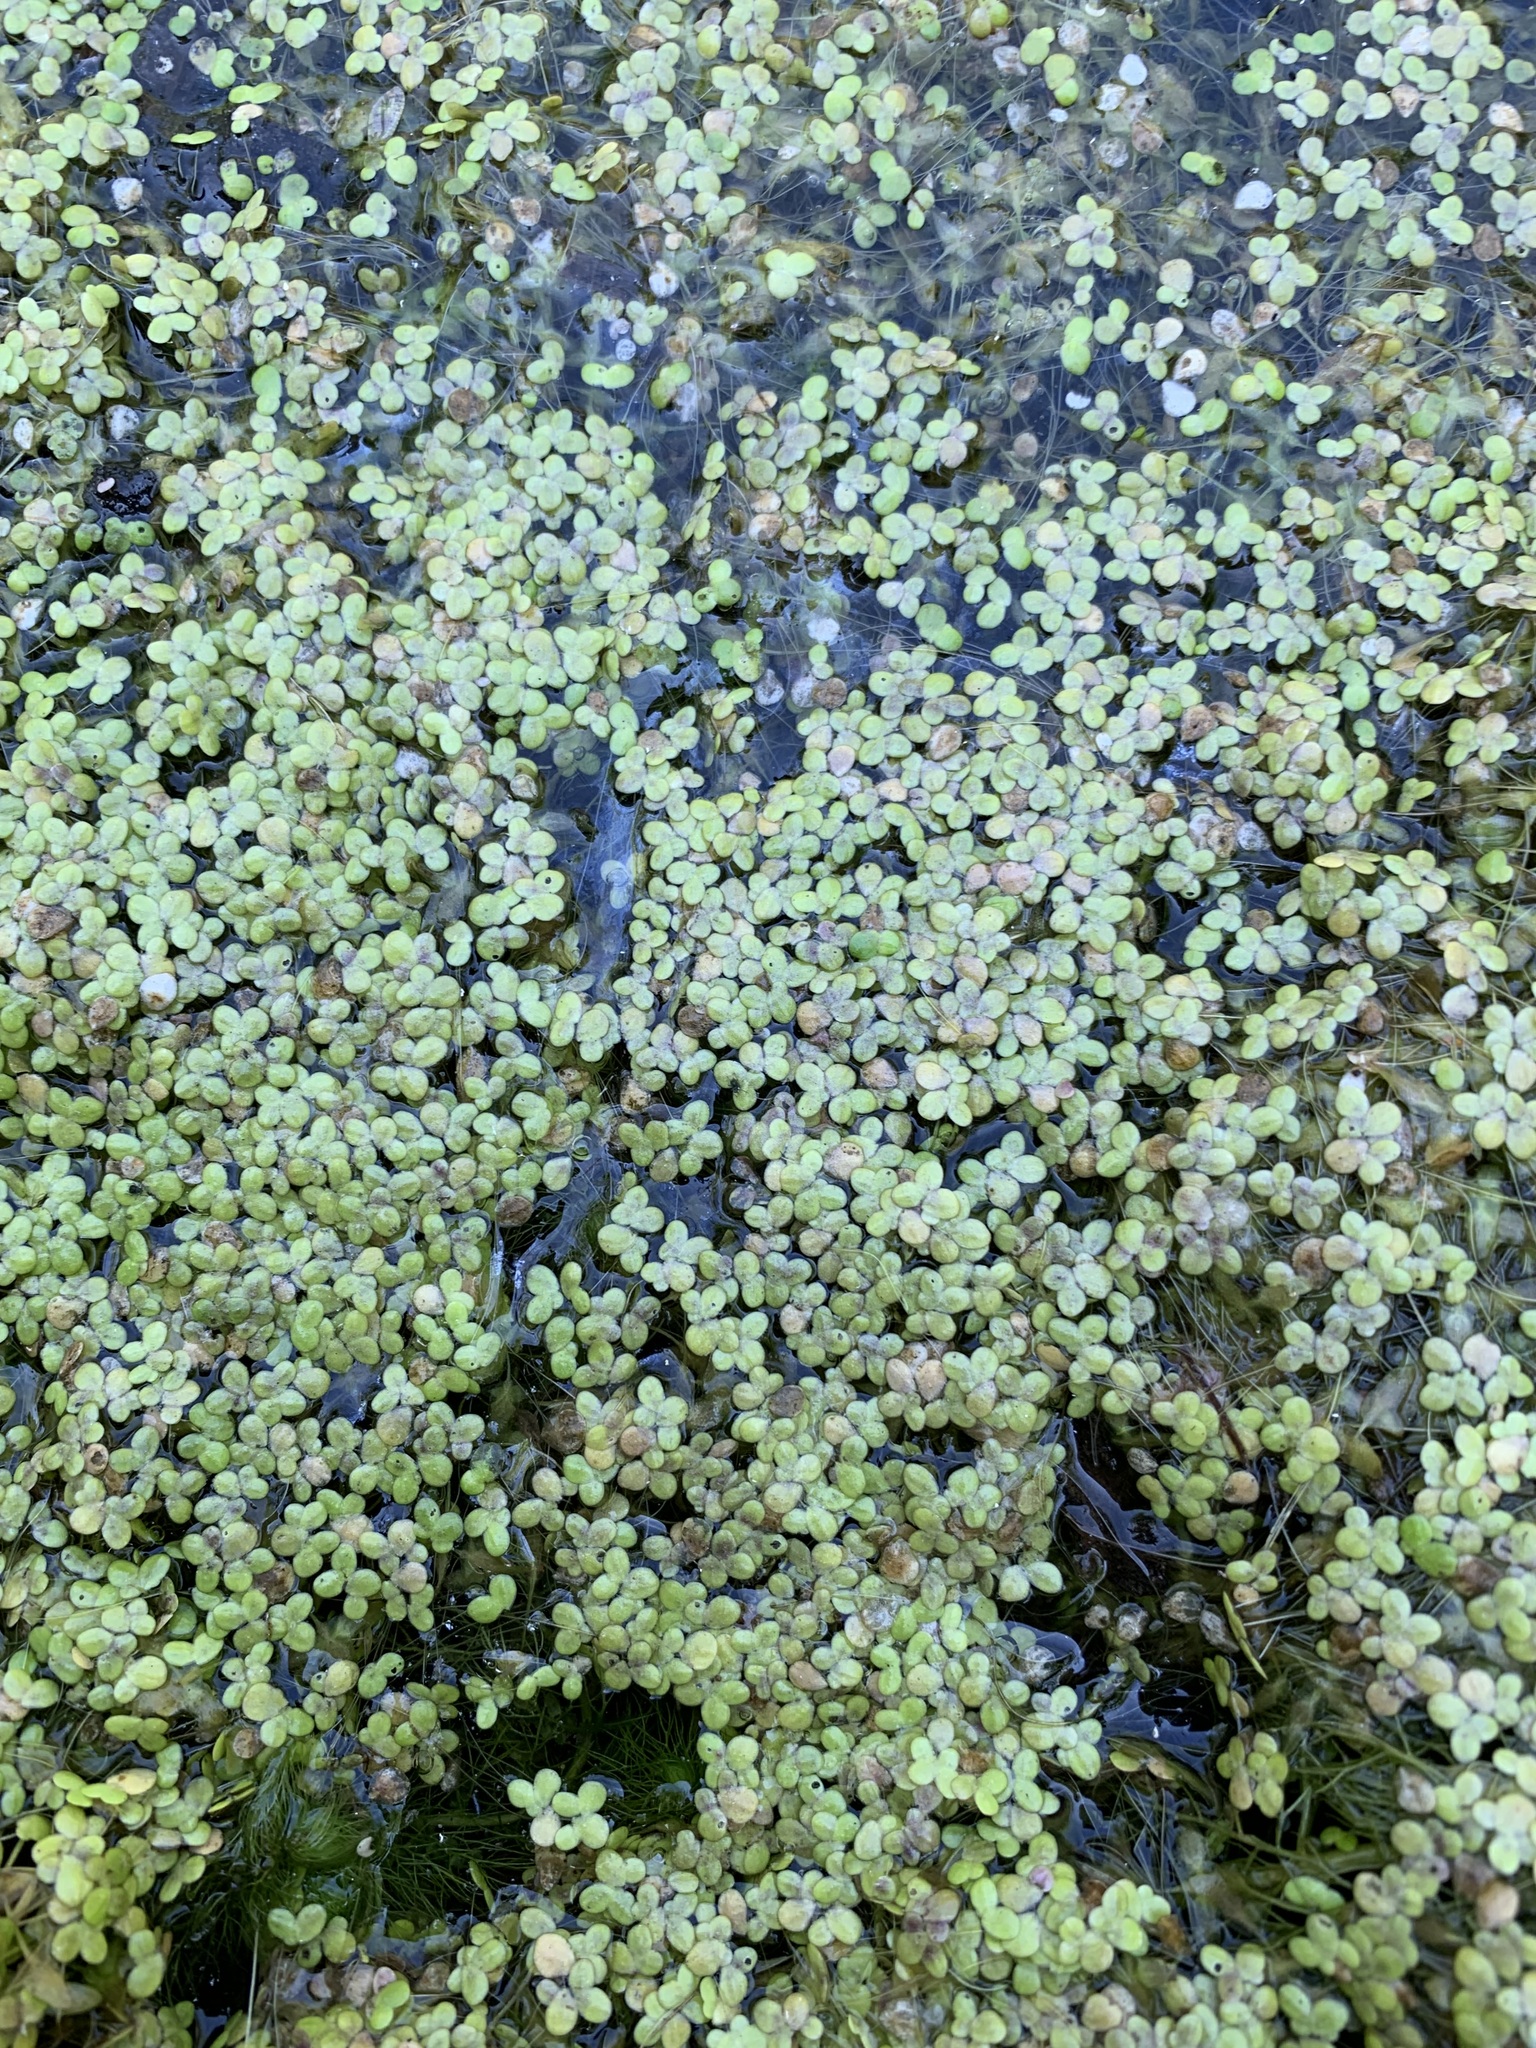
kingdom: Plantae
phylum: Tracheophyta
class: Liliopsida
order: Alismatales
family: Araceae
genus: Lemna
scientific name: Lemna turionifera
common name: Perennial duckweed
